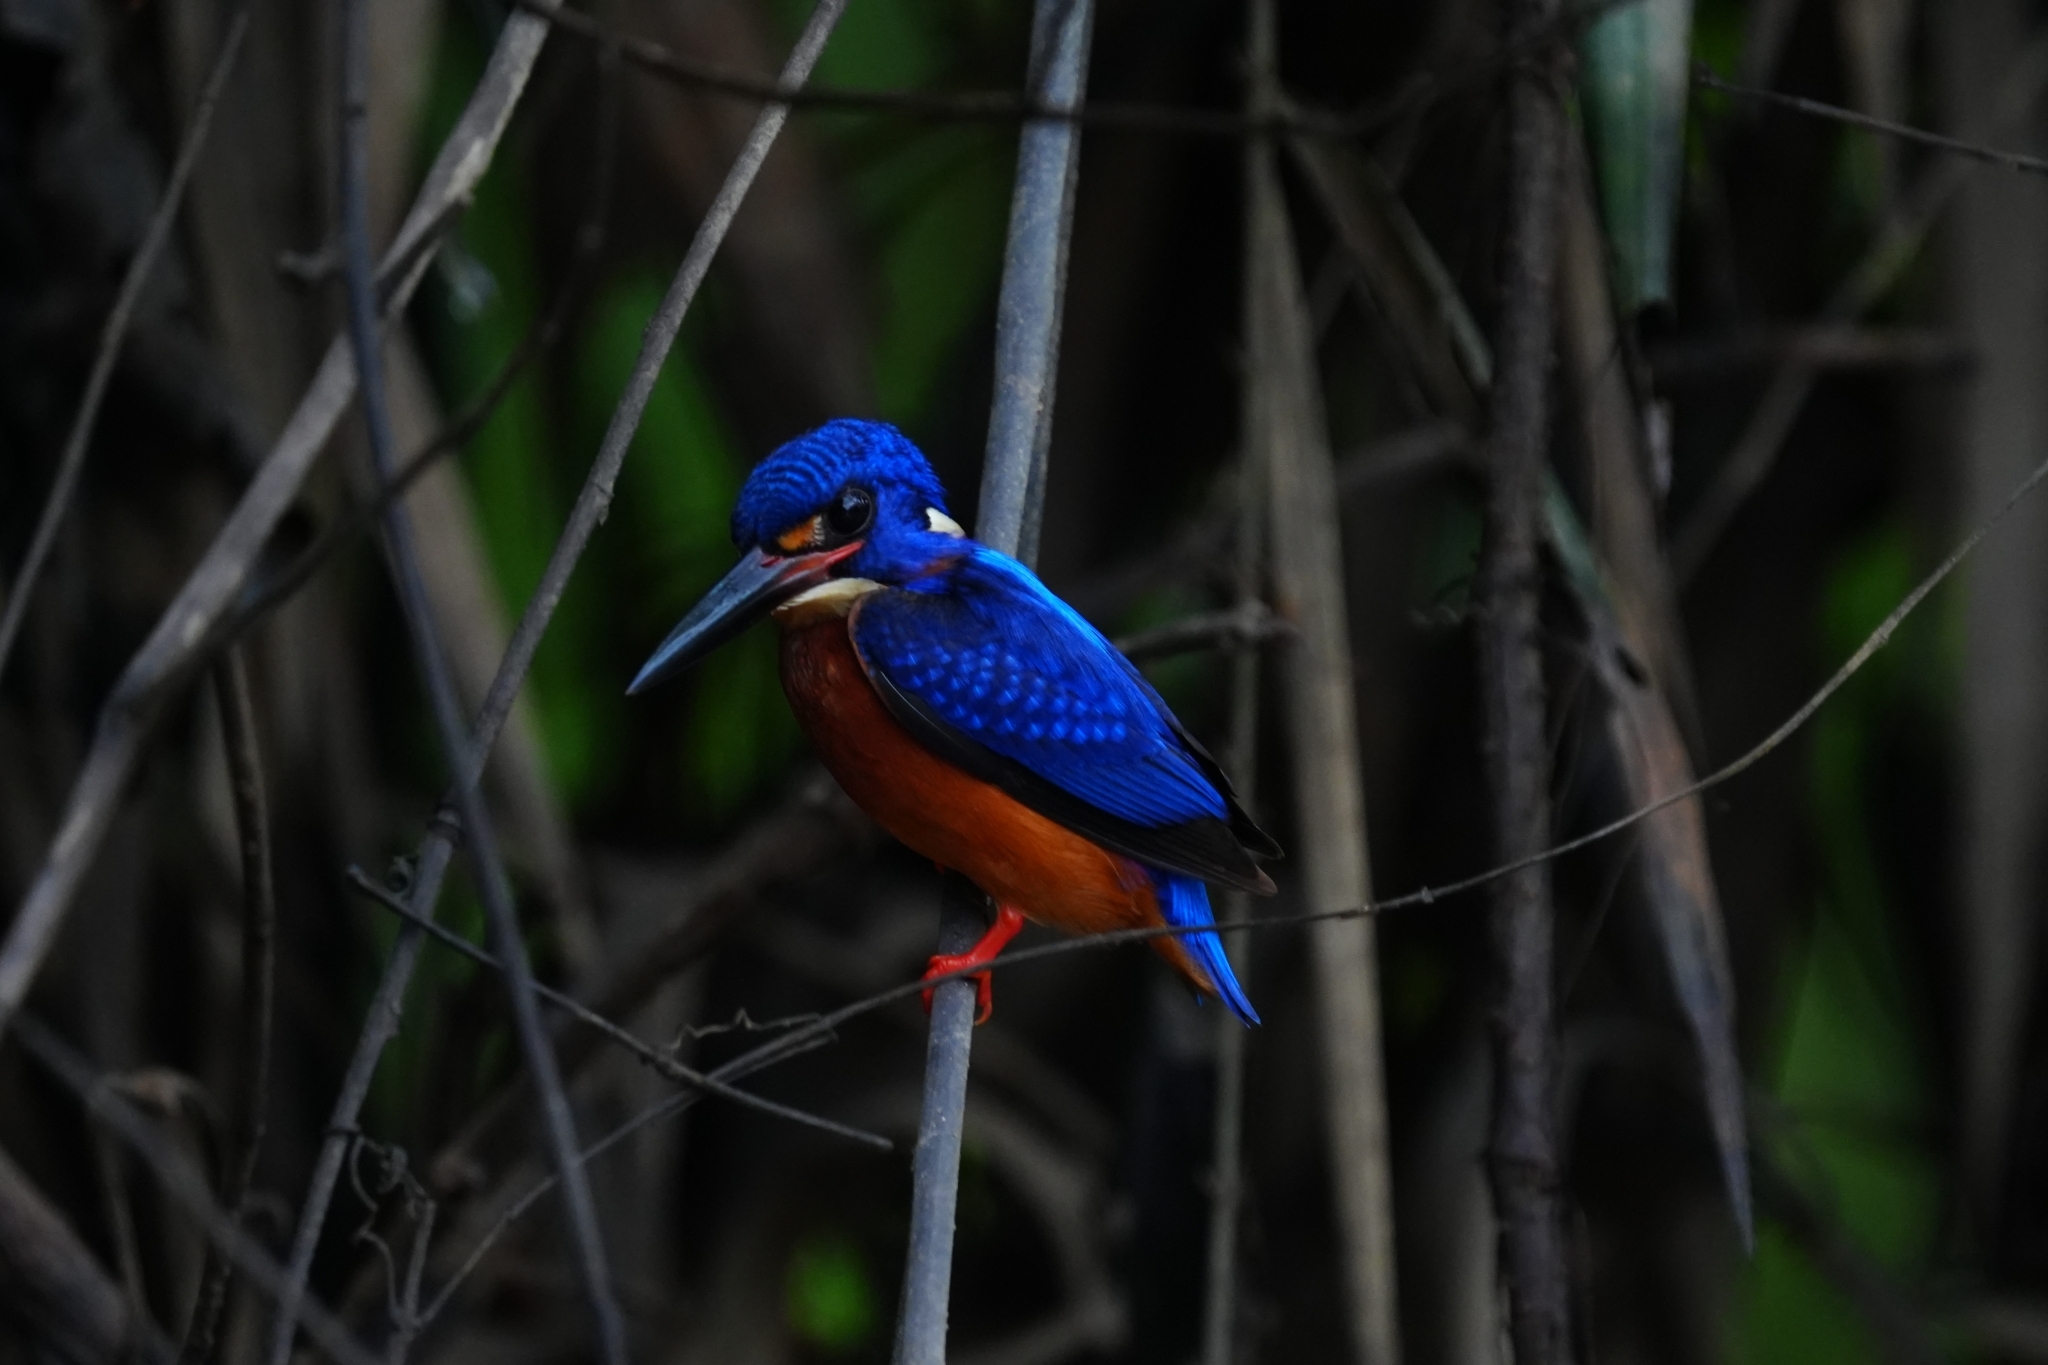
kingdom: Animalia
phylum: Chordata
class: Aves
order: Coraciiformes
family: Alcedinidae
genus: Alcedo
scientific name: Alcedo meninting
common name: Blue-eared kingfisher
